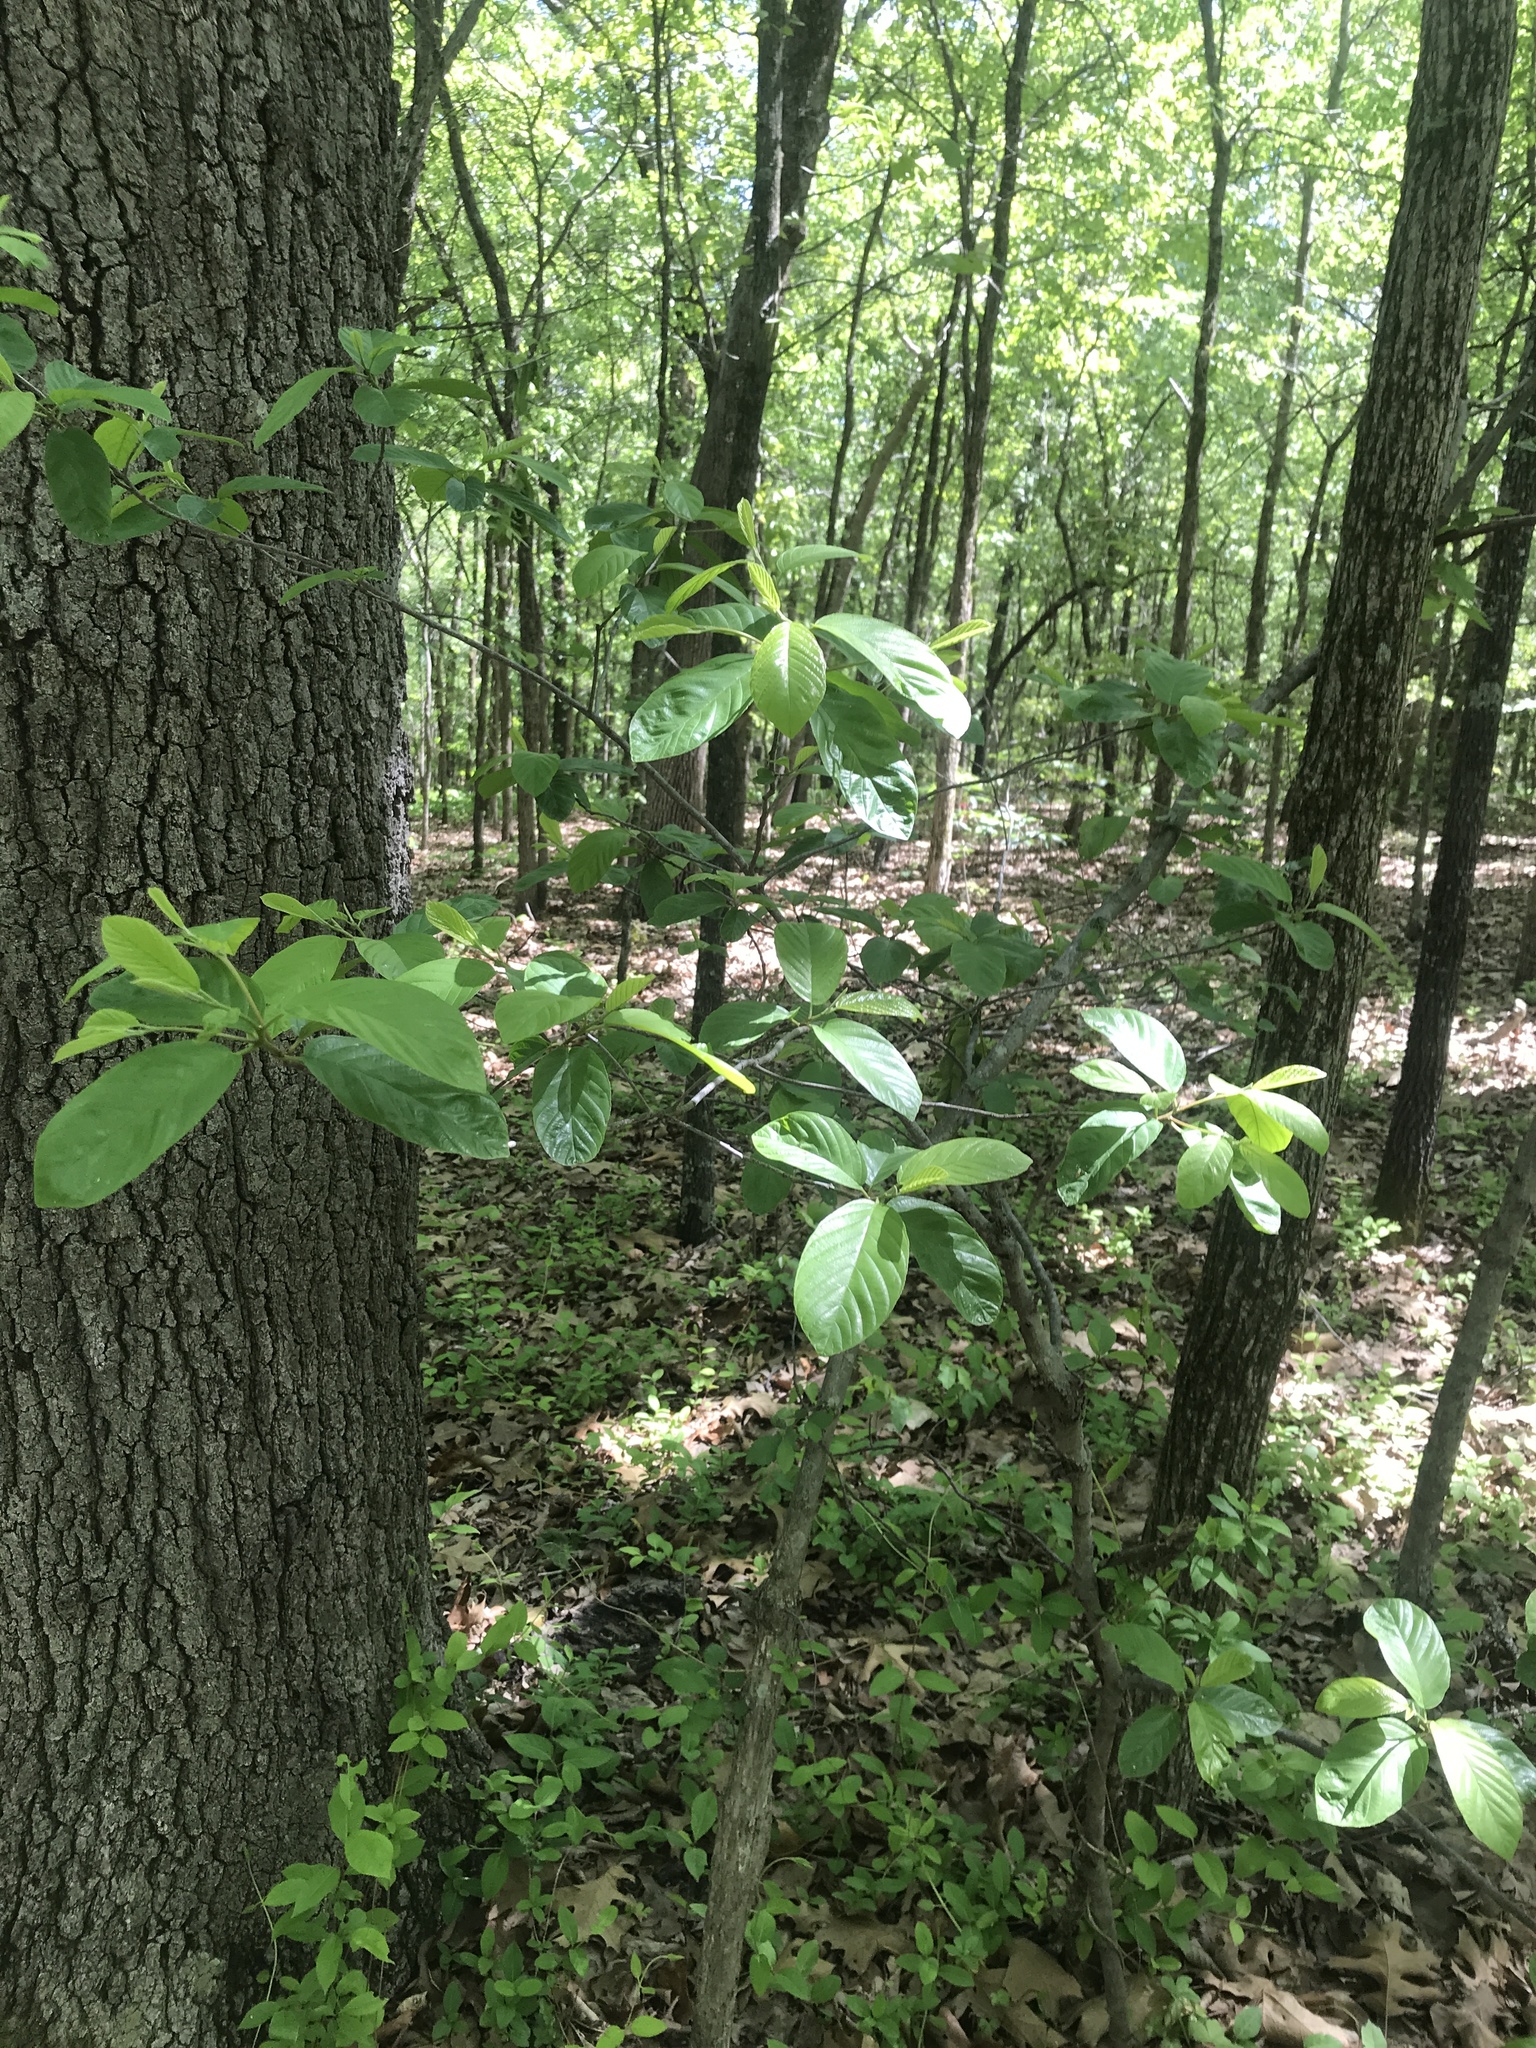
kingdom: Plantae
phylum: Tracheophyta
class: Magnoliopsida
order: Rosales
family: Rhamnaceae
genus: Frangula
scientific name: Frangula caroliniana
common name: Carolina buckthorn
